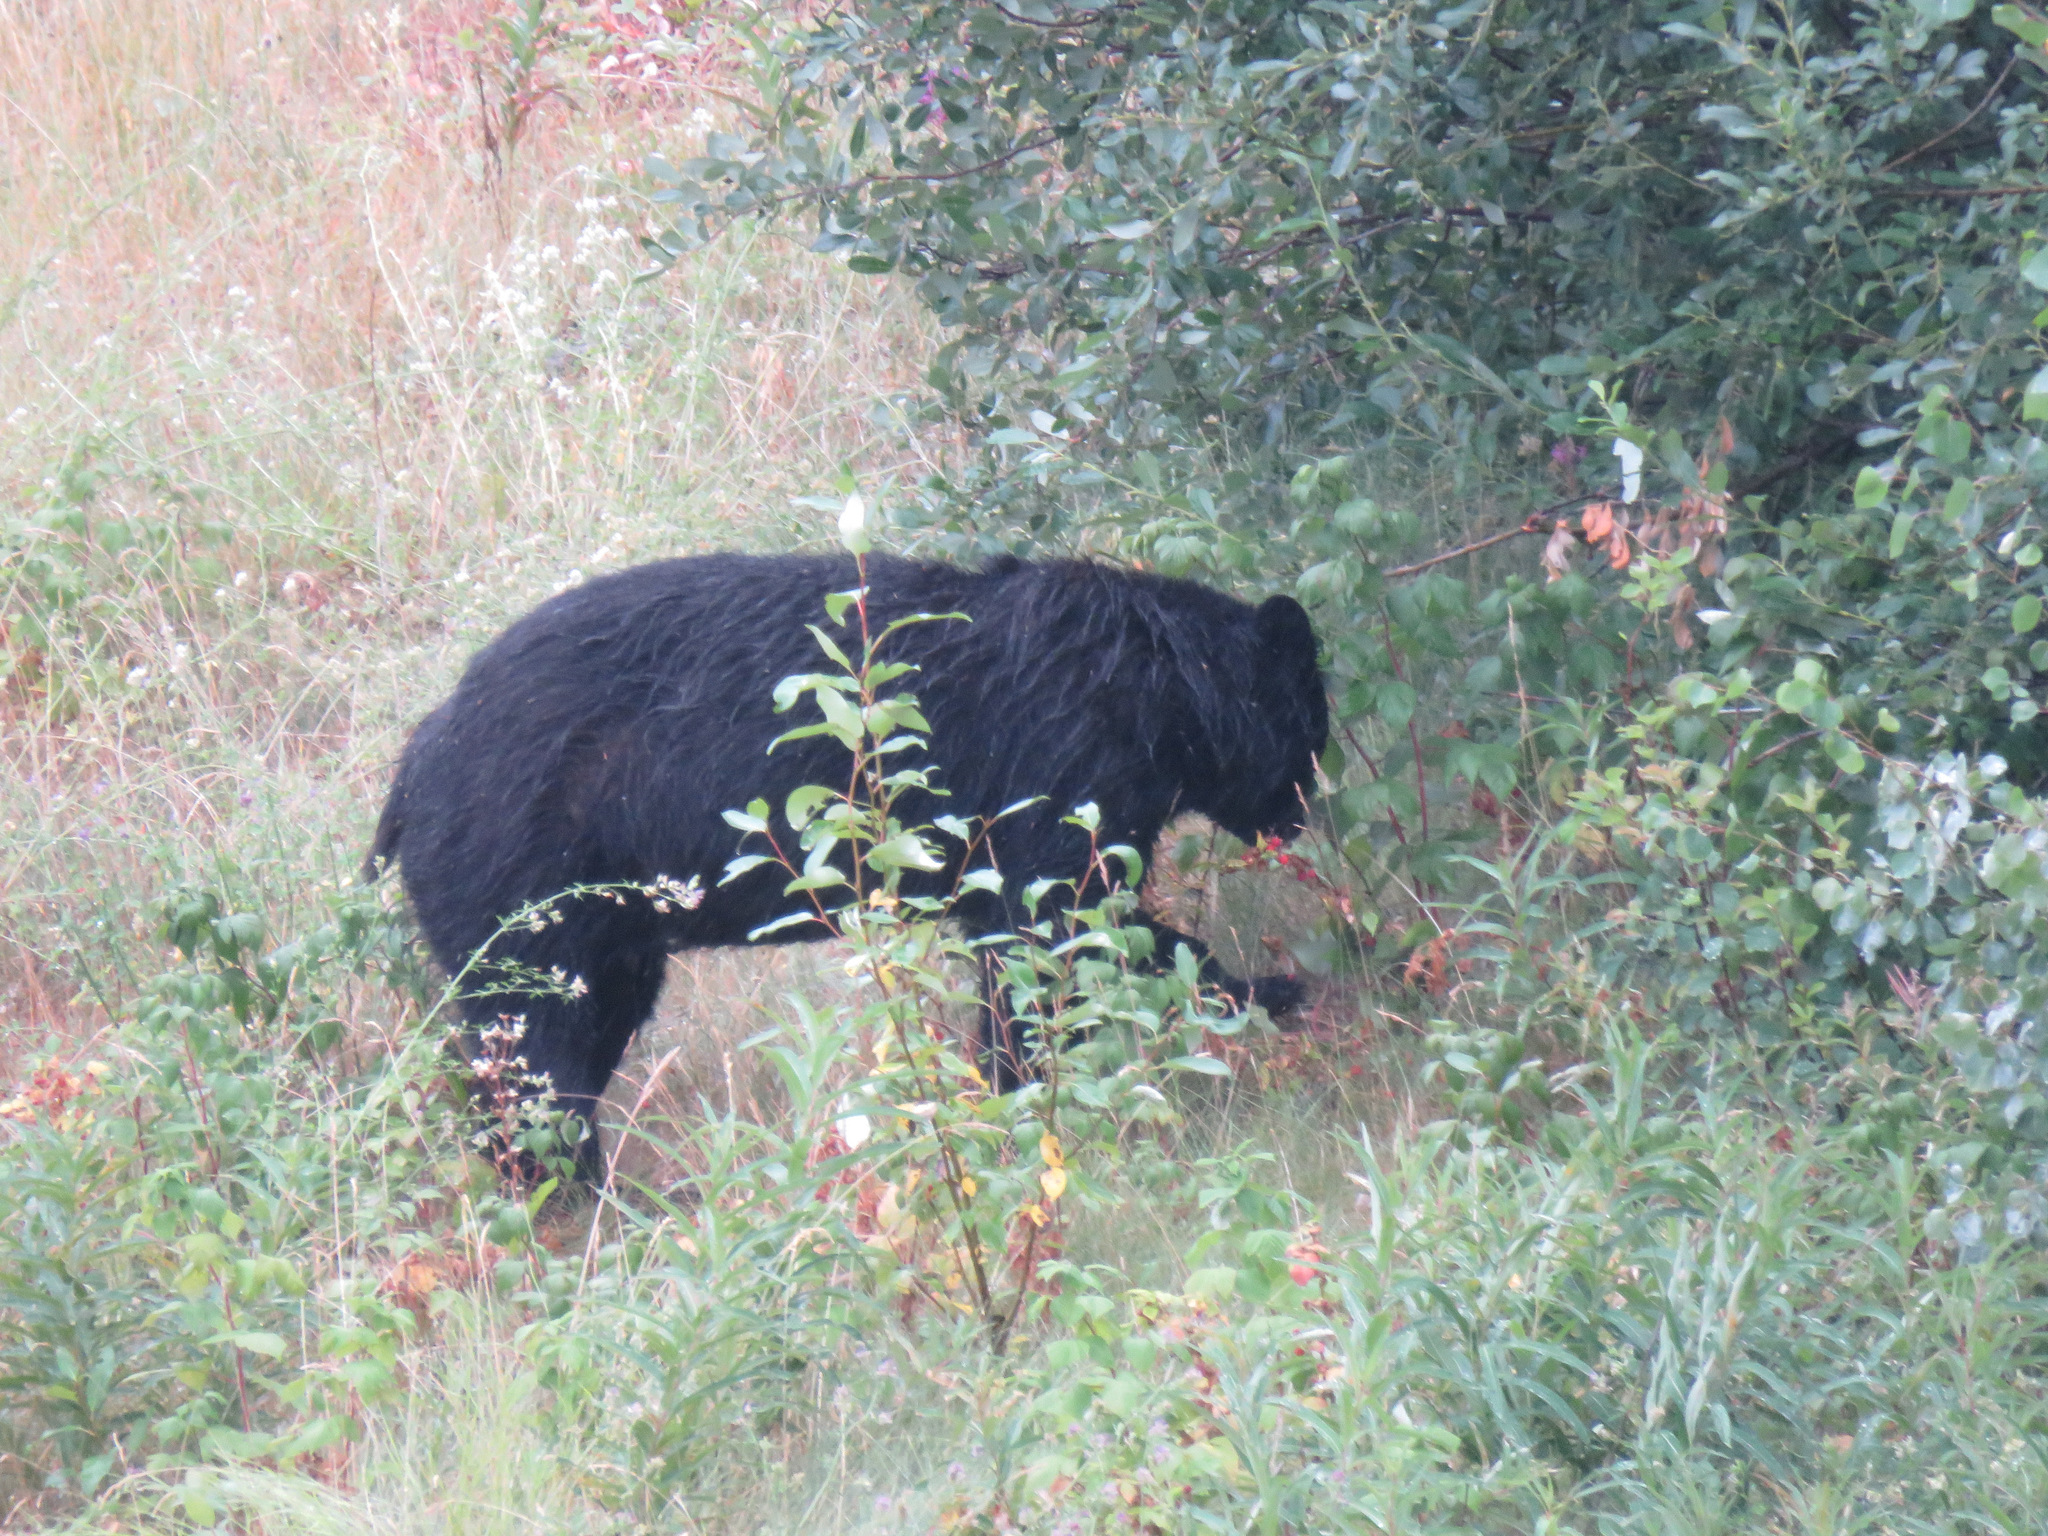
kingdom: Animalia
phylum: Chordata
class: Mammalia
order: Carnivora
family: Ursidae
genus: Ursus
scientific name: Ursus americanus
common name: American black bear
